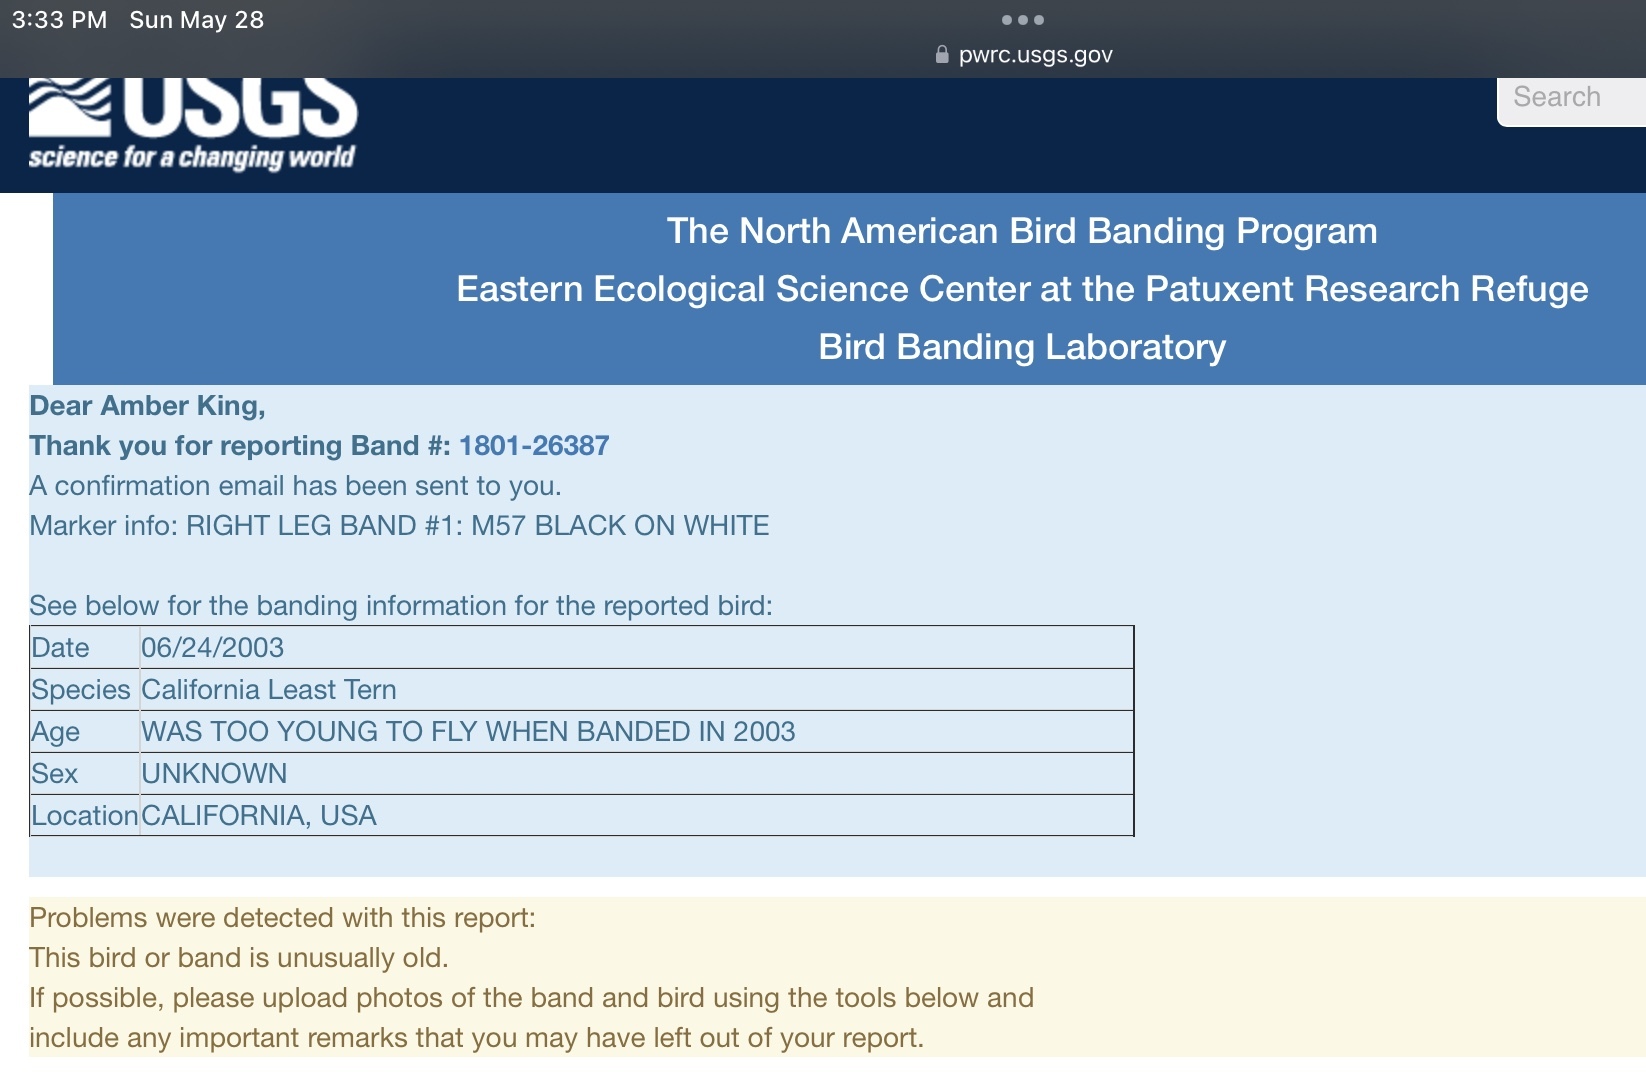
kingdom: Animalia
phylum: Chordata
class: Aves
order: Charadriiformes
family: Laridae
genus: Sternula
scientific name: Sternula antillarum
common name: Least tern
